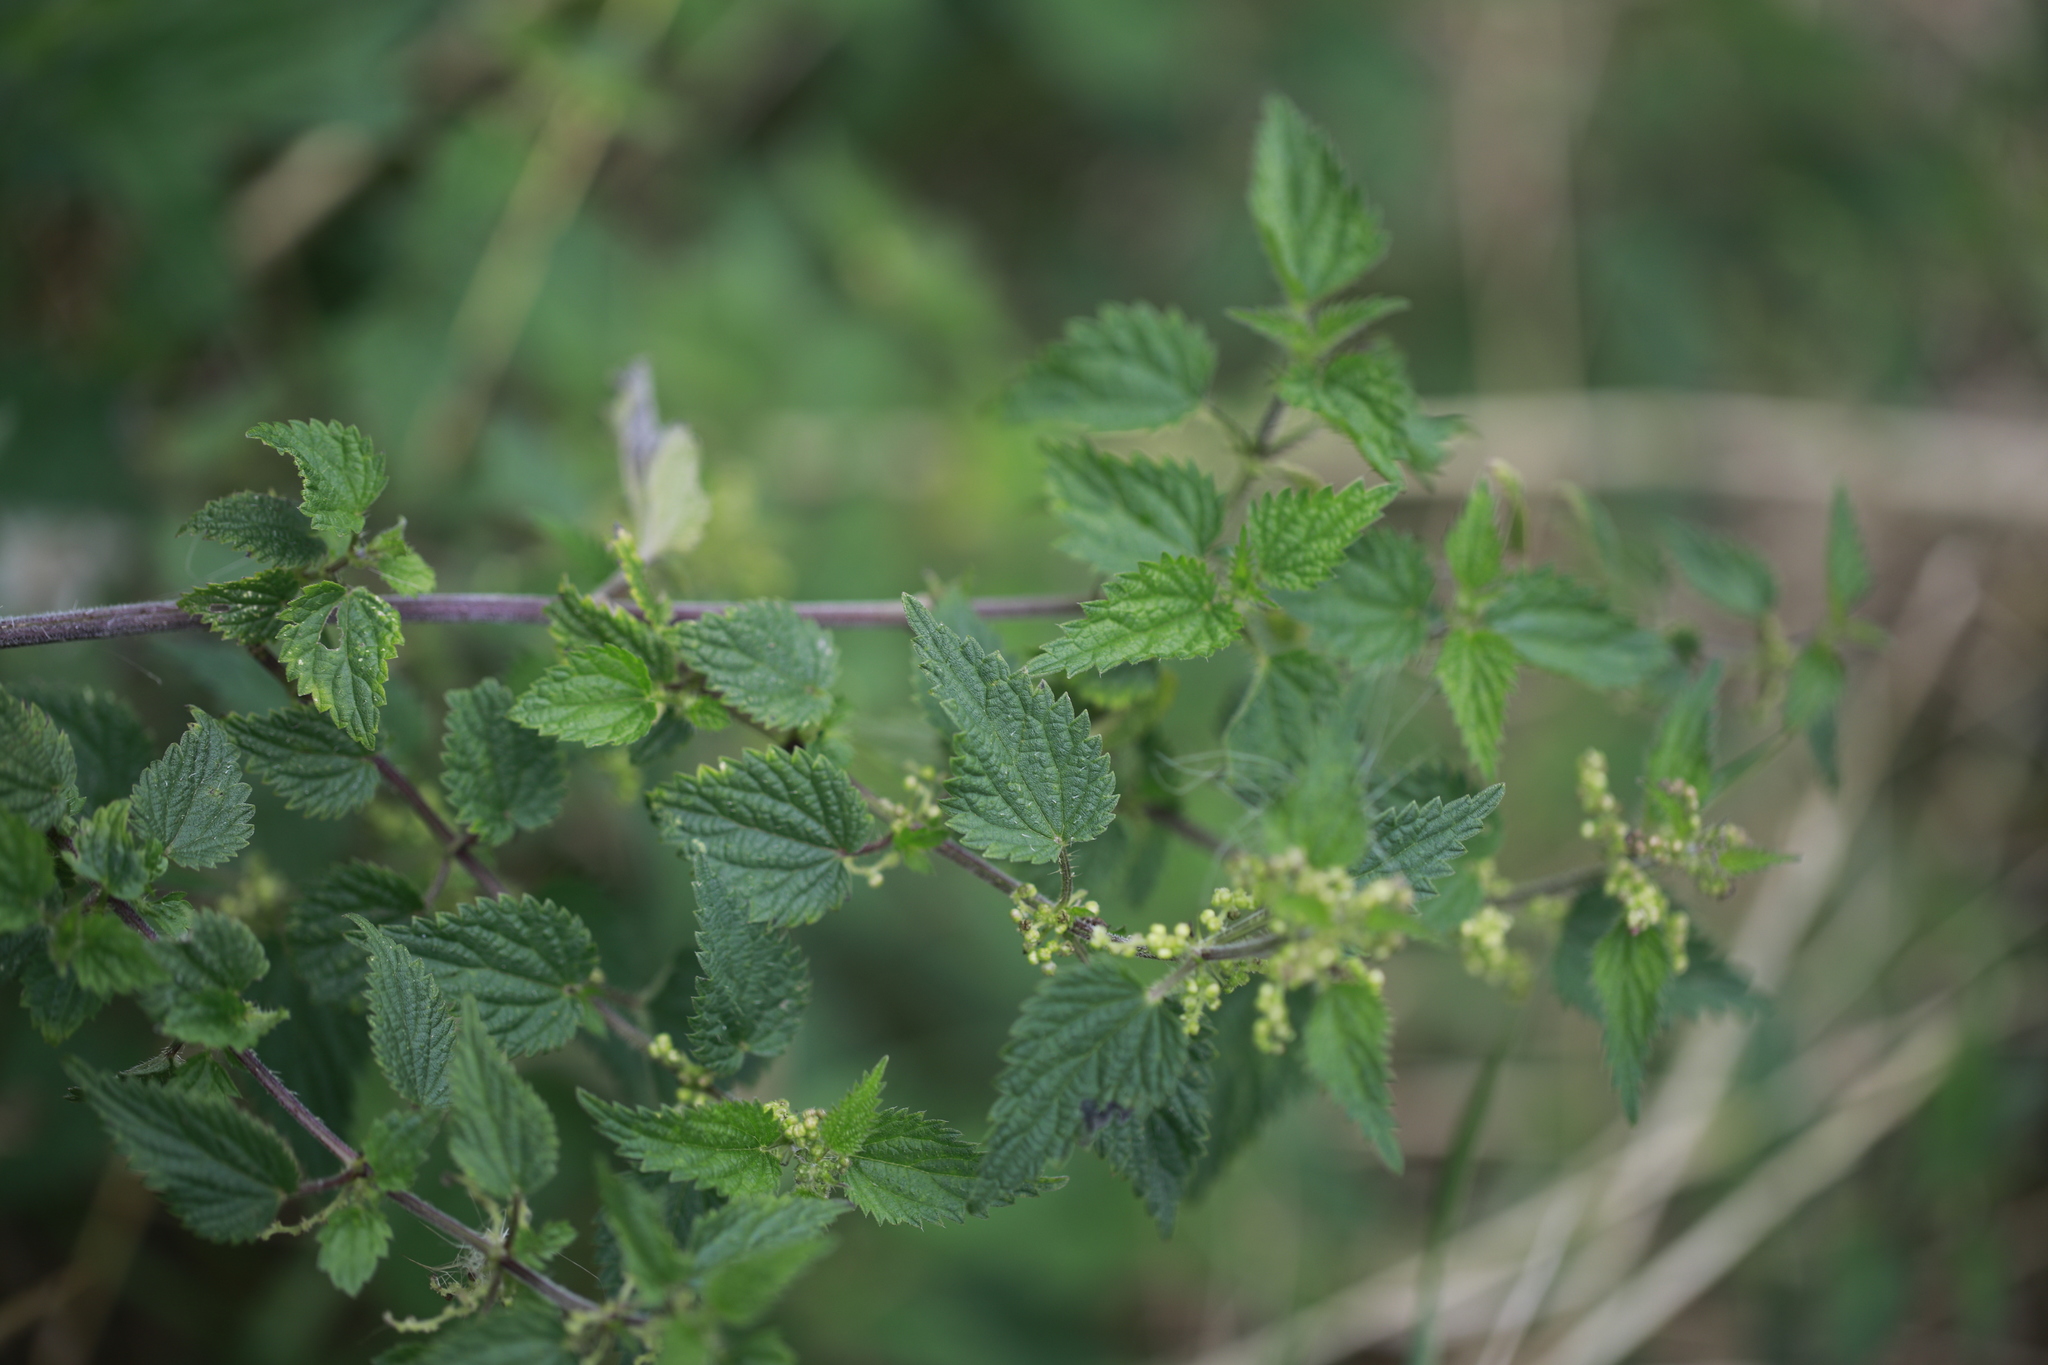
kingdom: Plantae
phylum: Tracheophyta
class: Magnoliopsida
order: Rosales
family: Urticaceae
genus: Urtica
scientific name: Urtica dioica
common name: Common nettle
